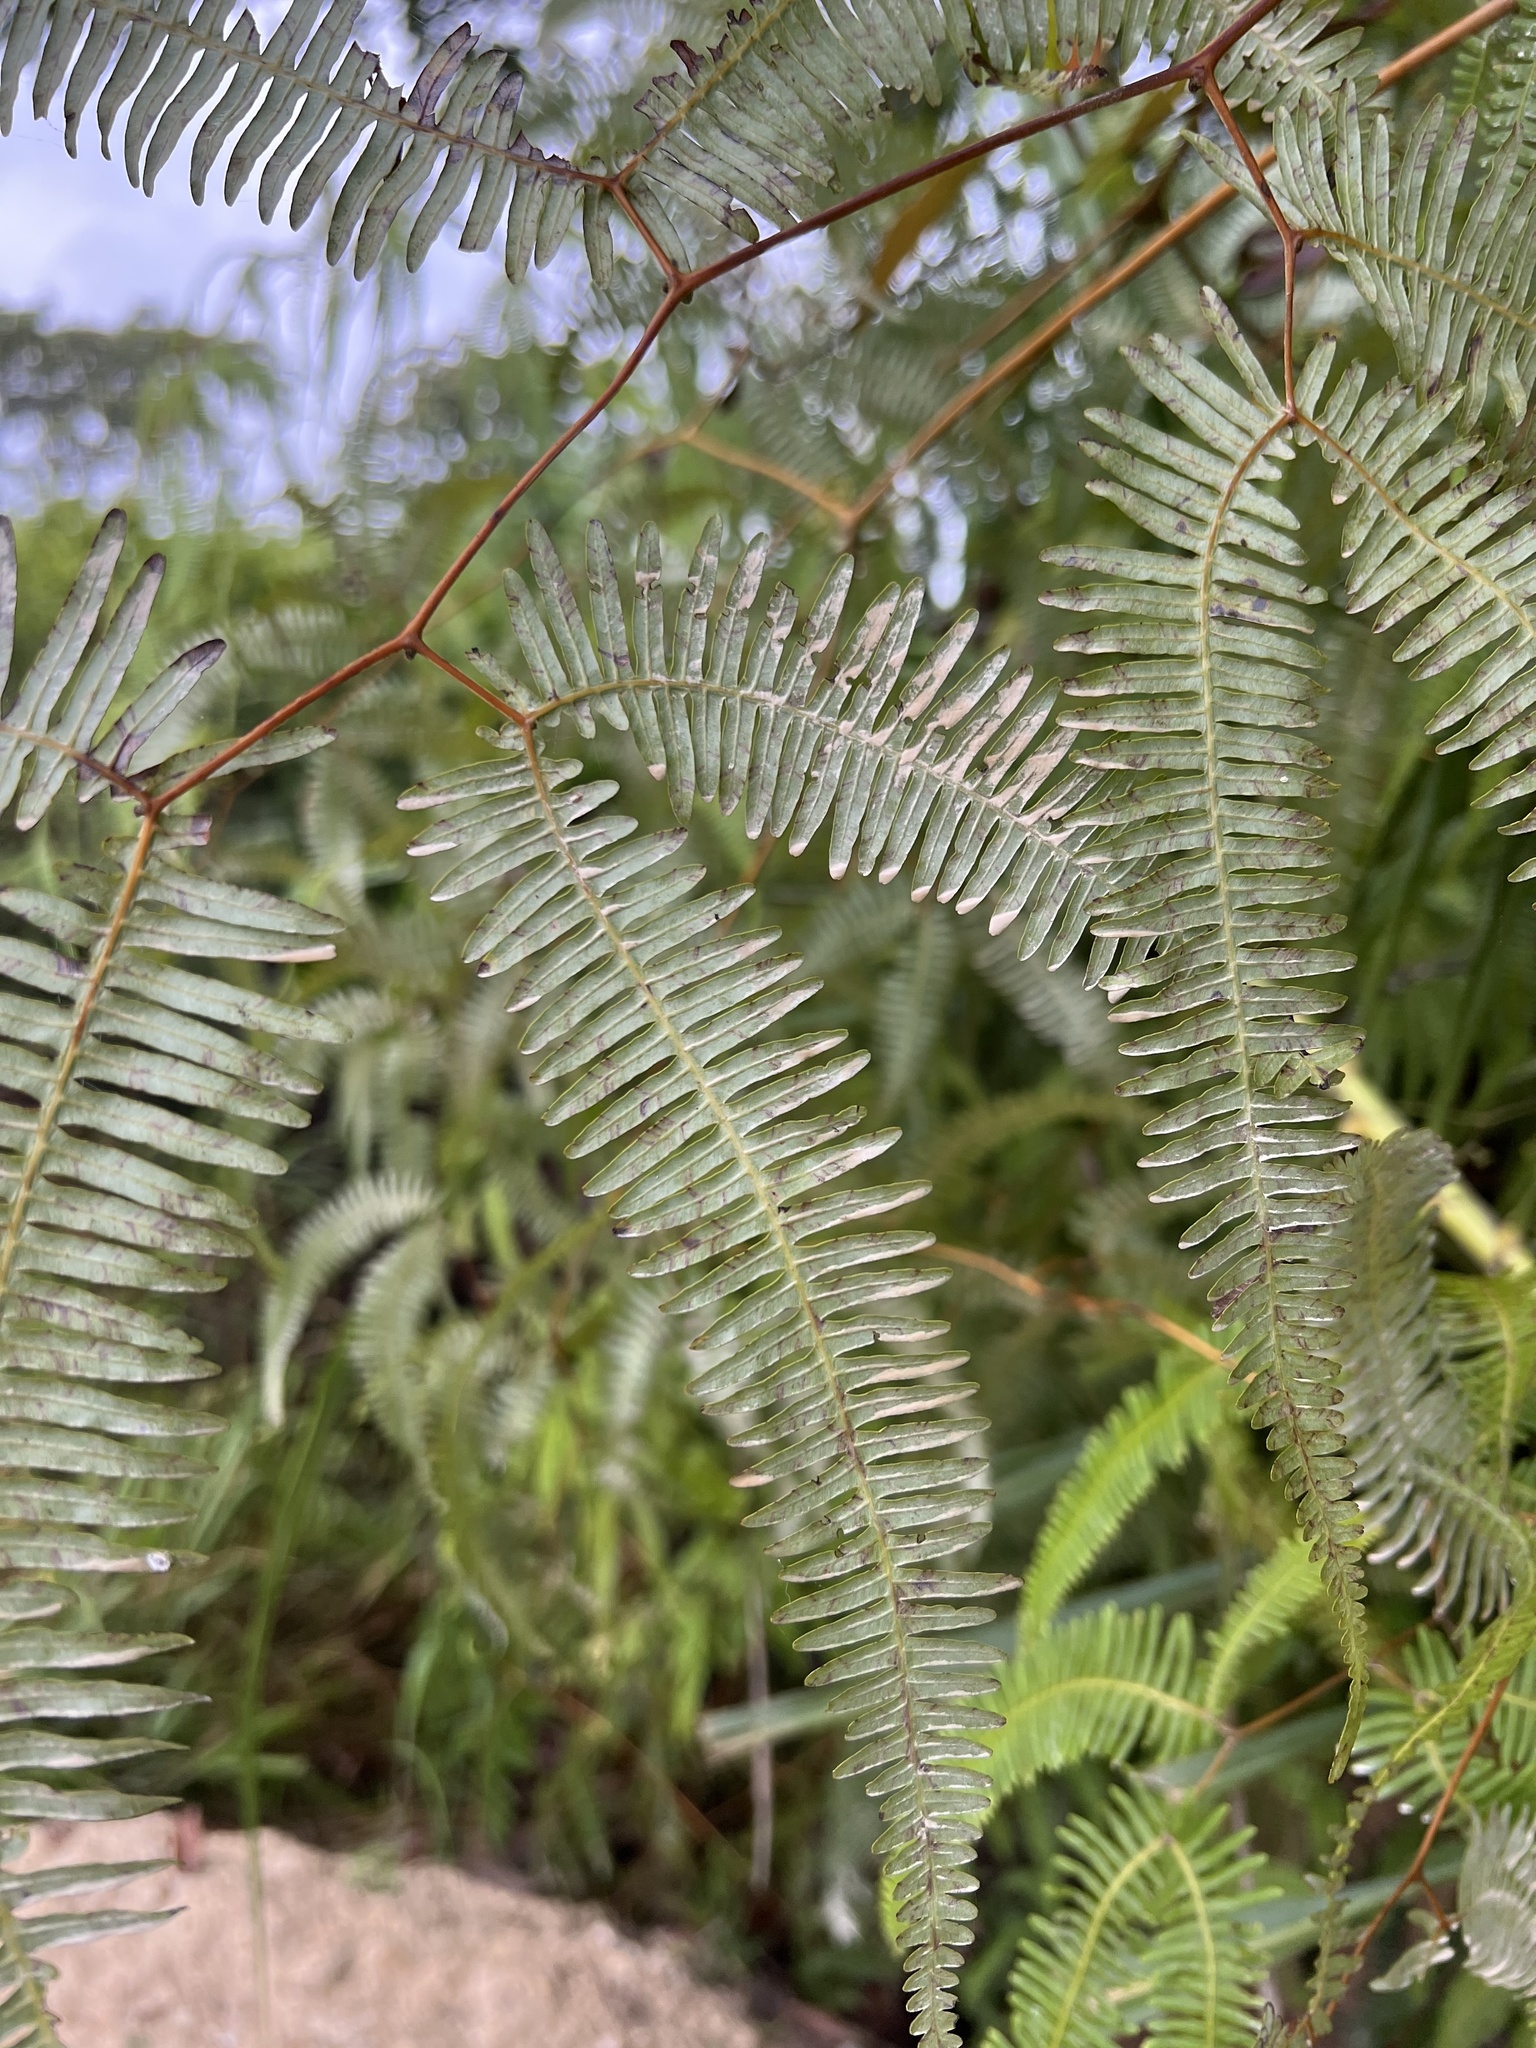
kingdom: Plantae
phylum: Tracheophyta
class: Polypodiopsida
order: Gleicheniales
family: Gleicheniaceae
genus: Gleichenella
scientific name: Gleichenella pectinata
